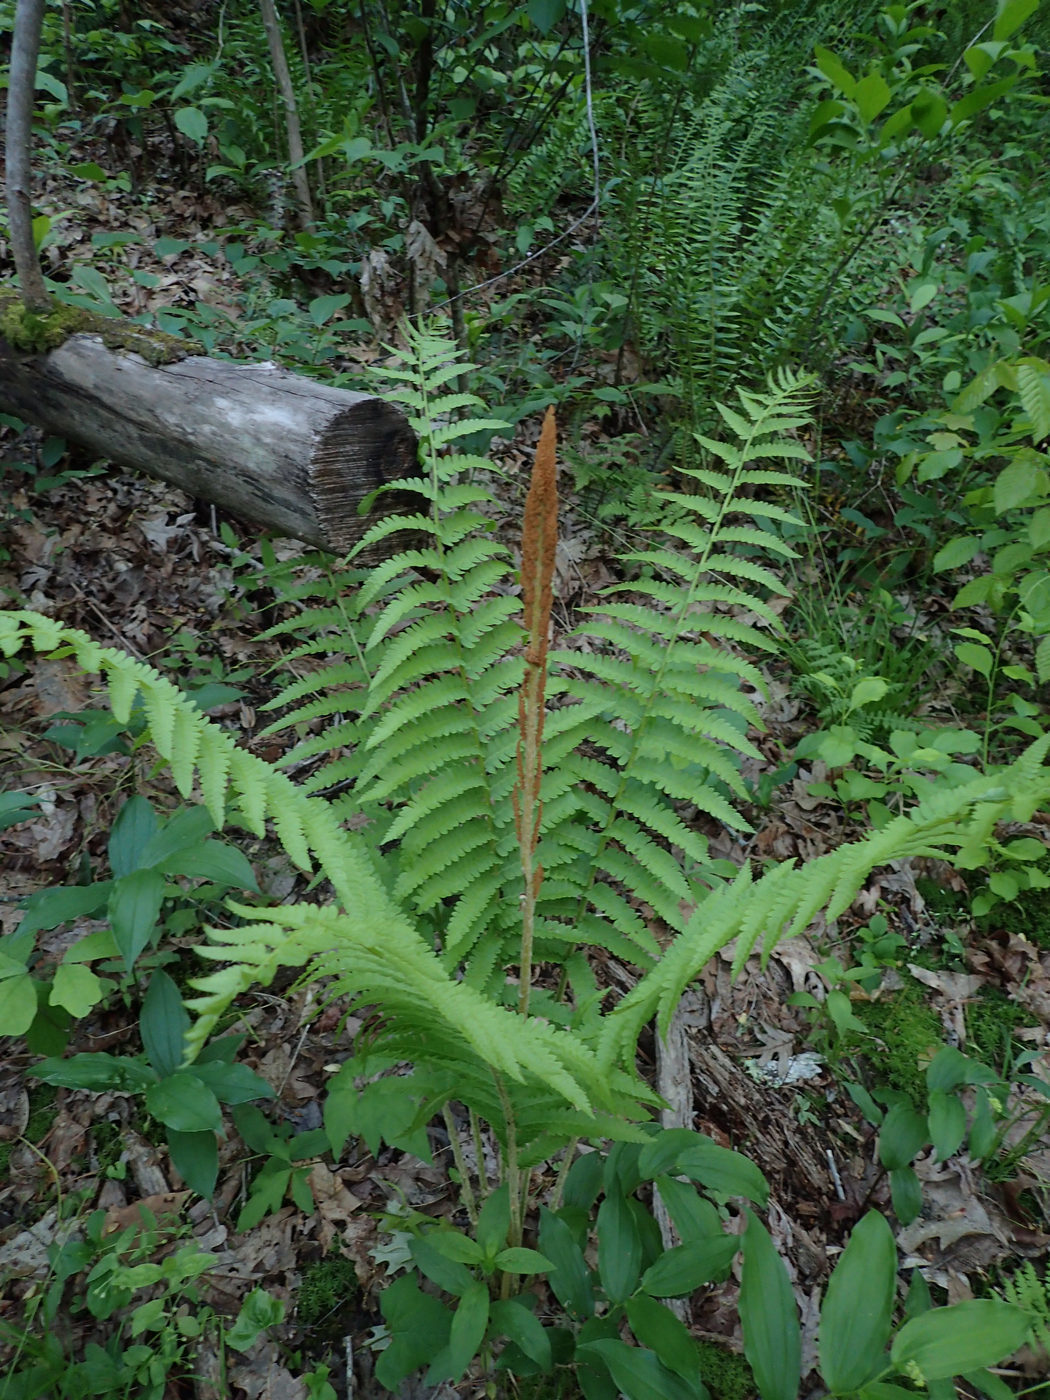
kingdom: Plantae
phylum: Tracheophyta
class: Polypodiopsida
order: Osmundales
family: Osmundaceae
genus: Osmundastrum
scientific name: Osmundastrum cinnamomeum
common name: Cinnamon fern
